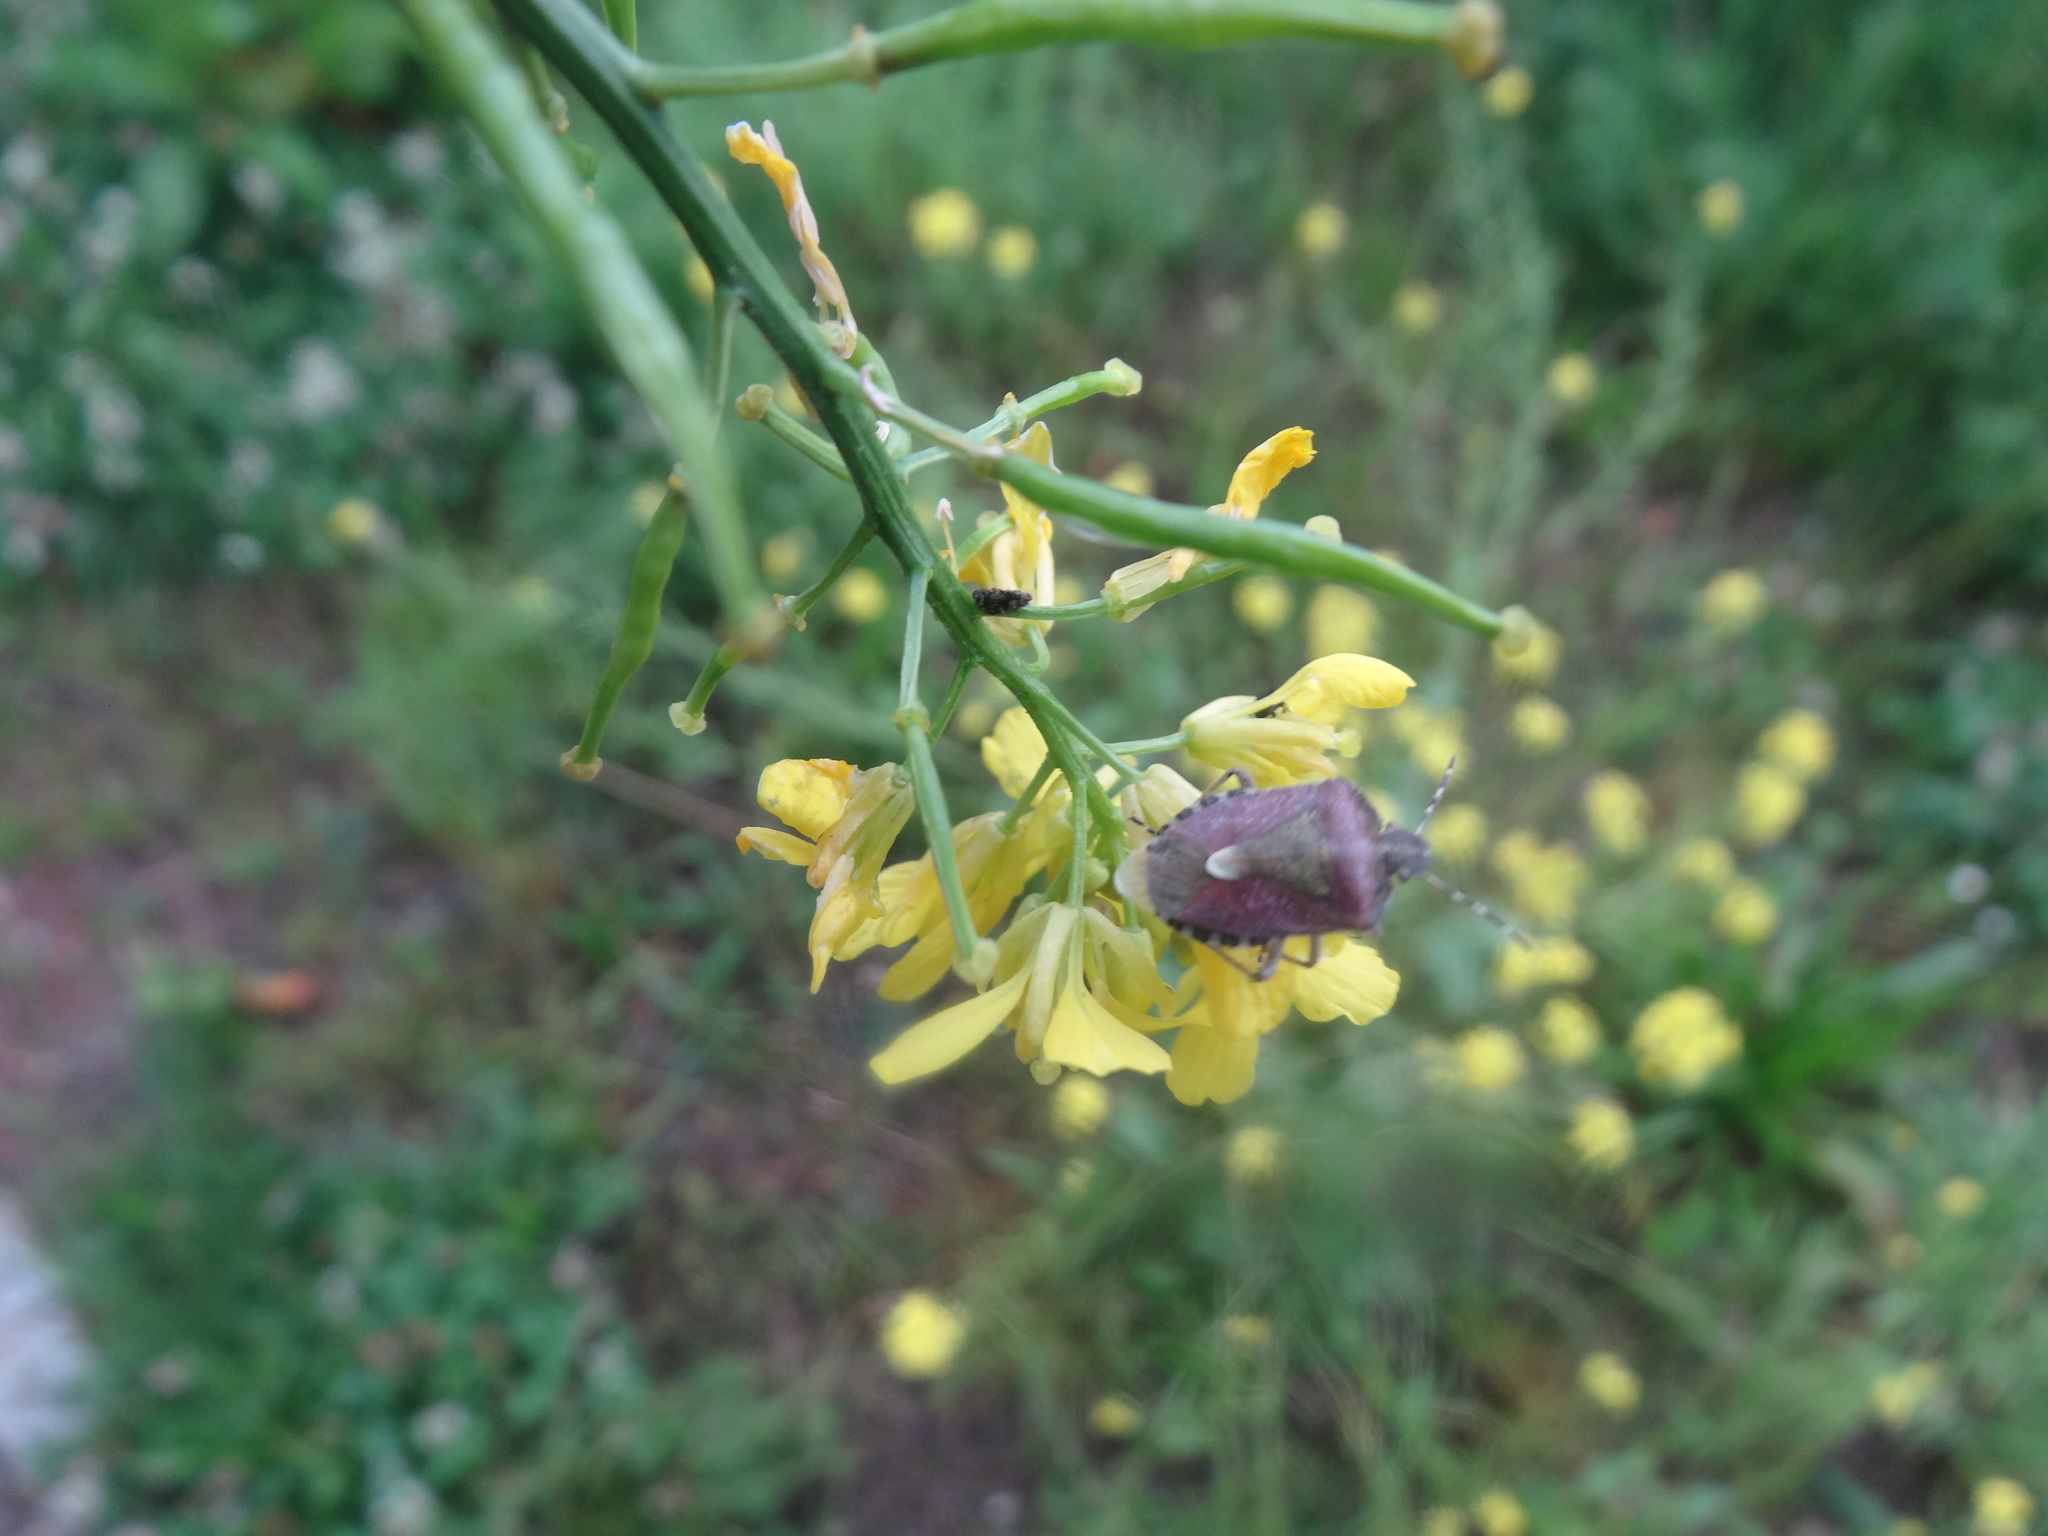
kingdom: Animalia
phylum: Arthropoda
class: Insecta
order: Hemiptera
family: Pentatomidae
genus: Dolycoris
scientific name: Dolycoris baccarum
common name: Sloe bug
